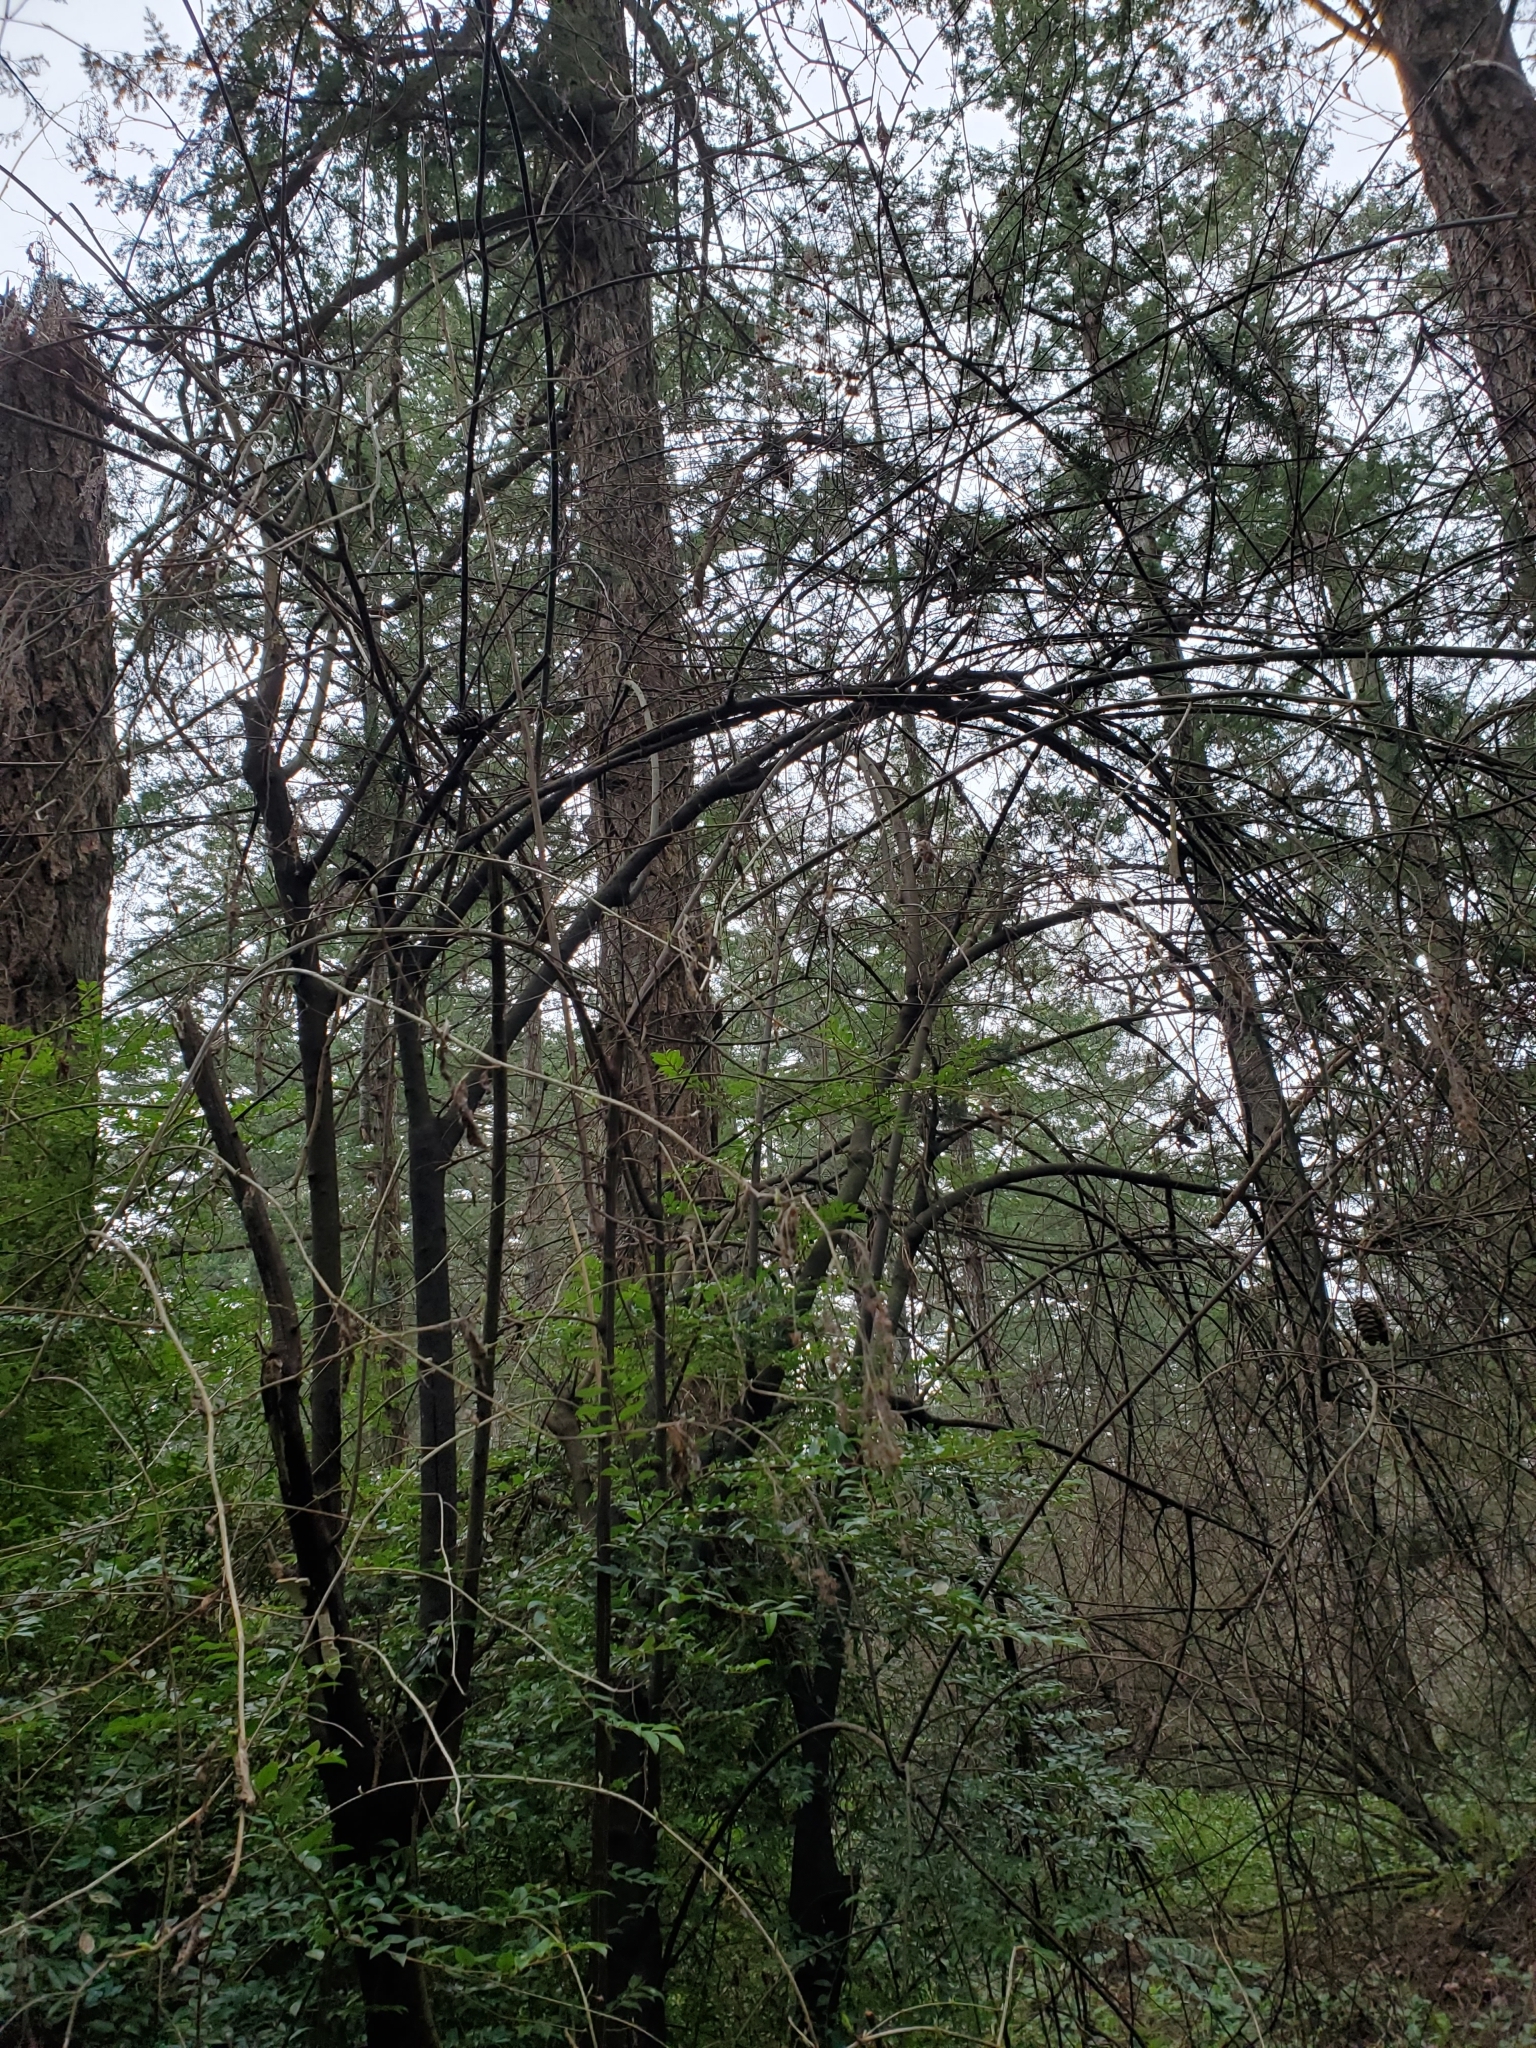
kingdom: Plantae
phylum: Tracheophyta
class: Magnoliopsida
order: Rosales
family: Rosaceae
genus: Holodiscus
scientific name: Holodiscus discolor
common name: Oceanspray
